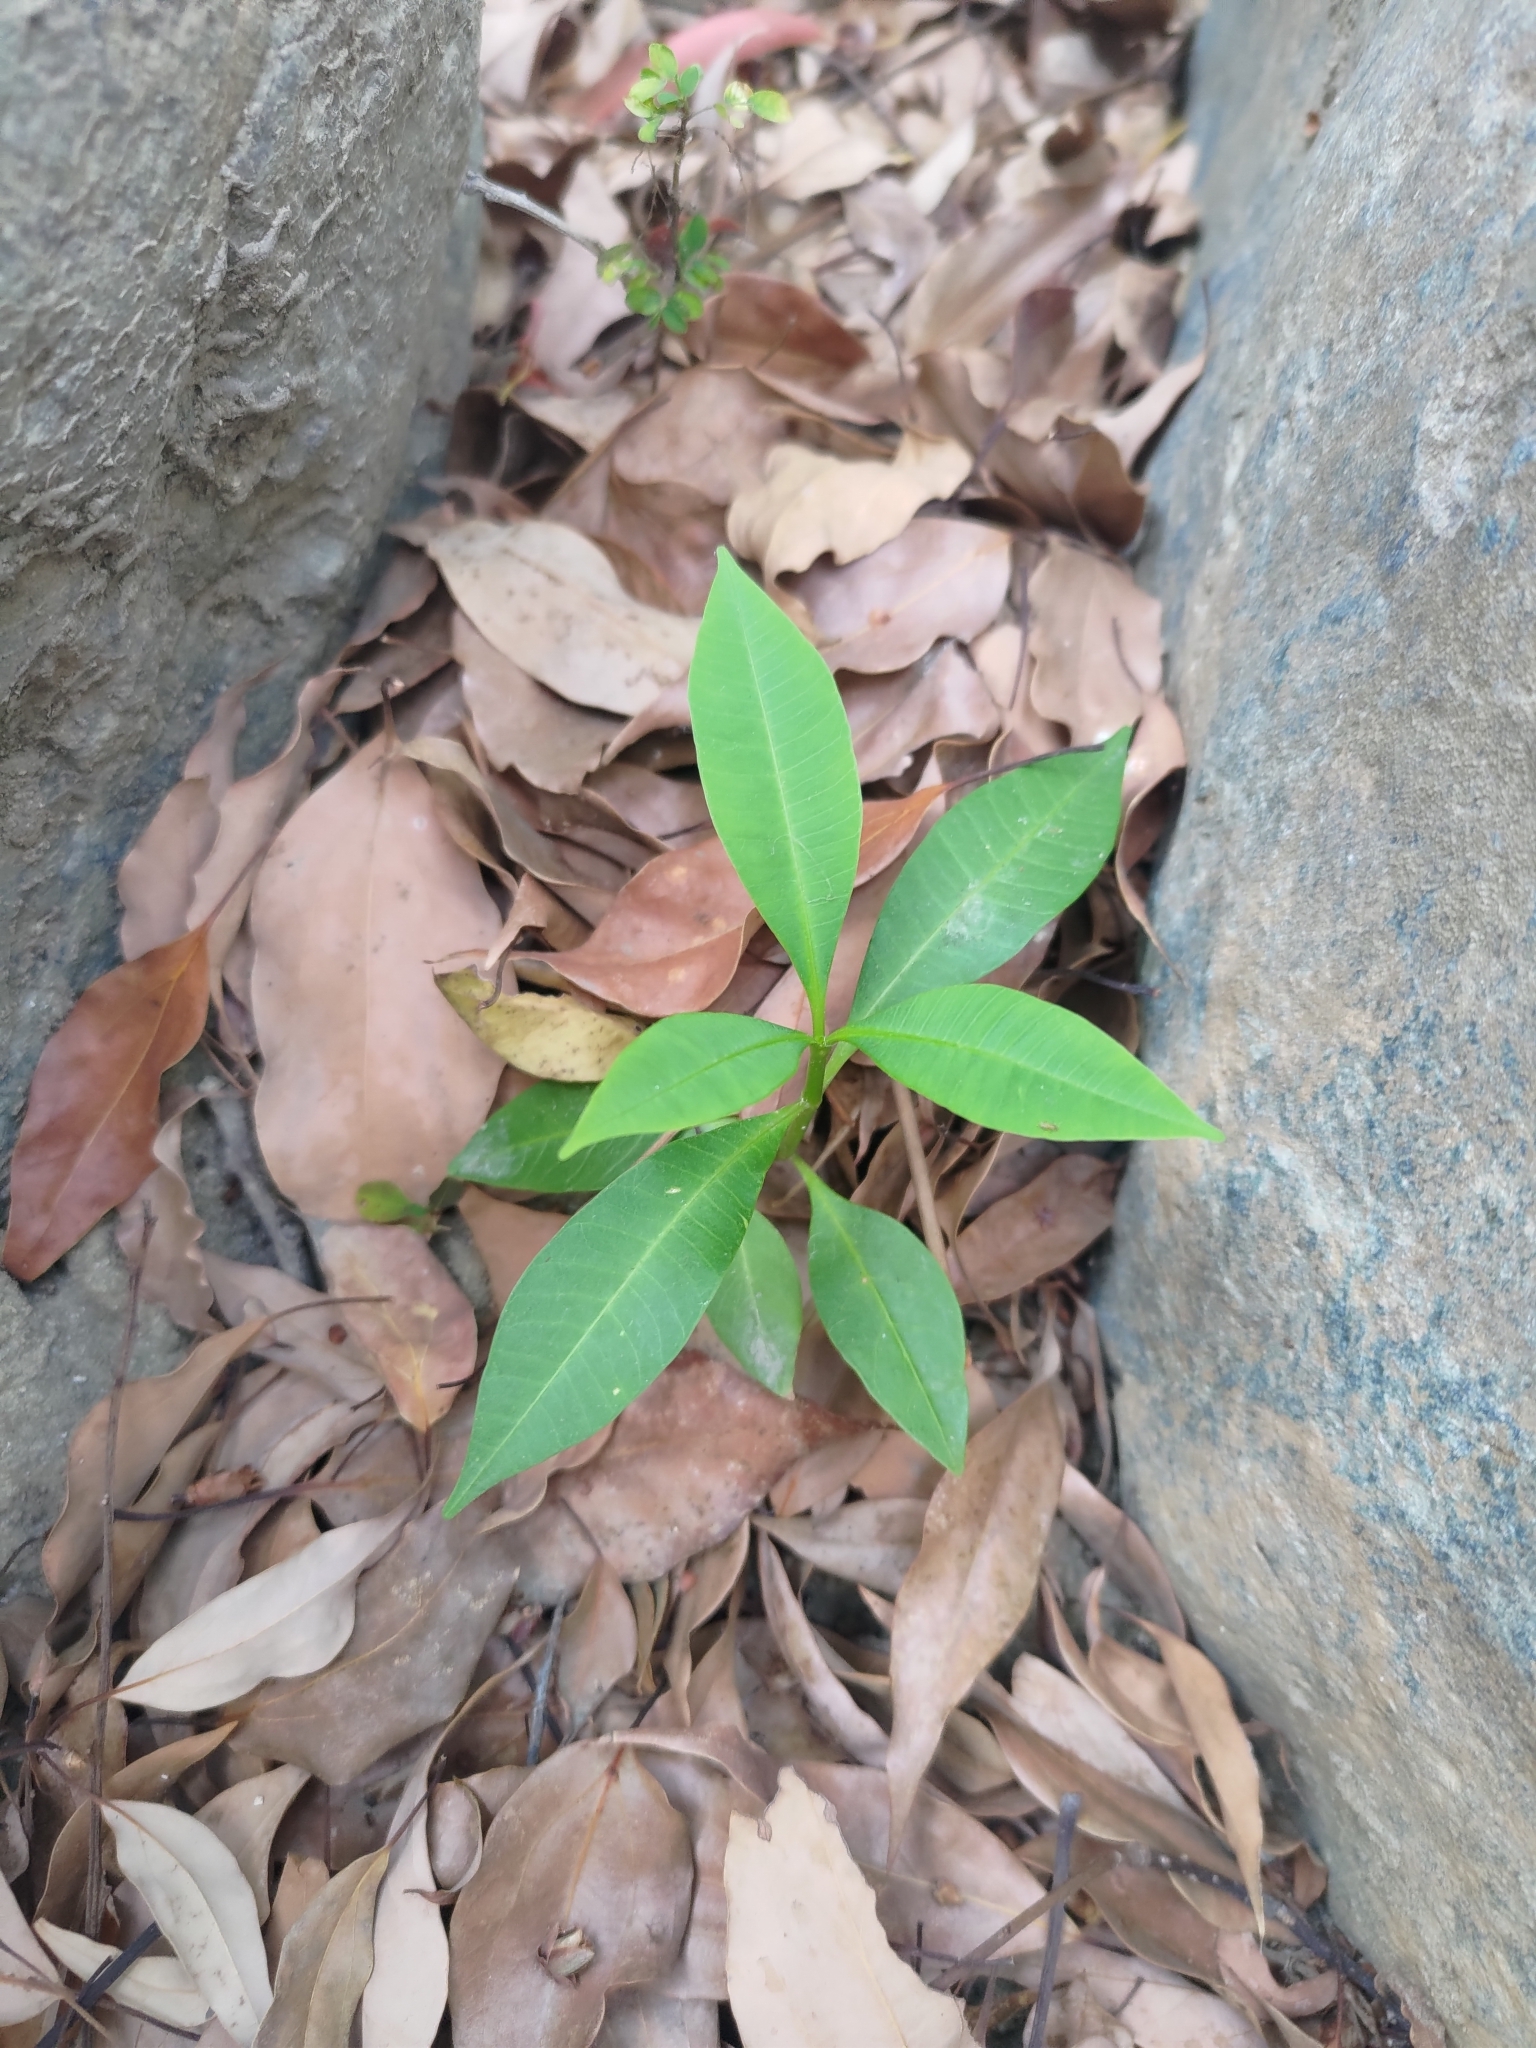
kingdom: Plantae
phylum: Tracheophyta
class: Magnoliopsida
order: Gentianales
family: Apocynaceae
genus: Alstonia
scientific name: Alstonia scholaris
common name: White cheesewood
